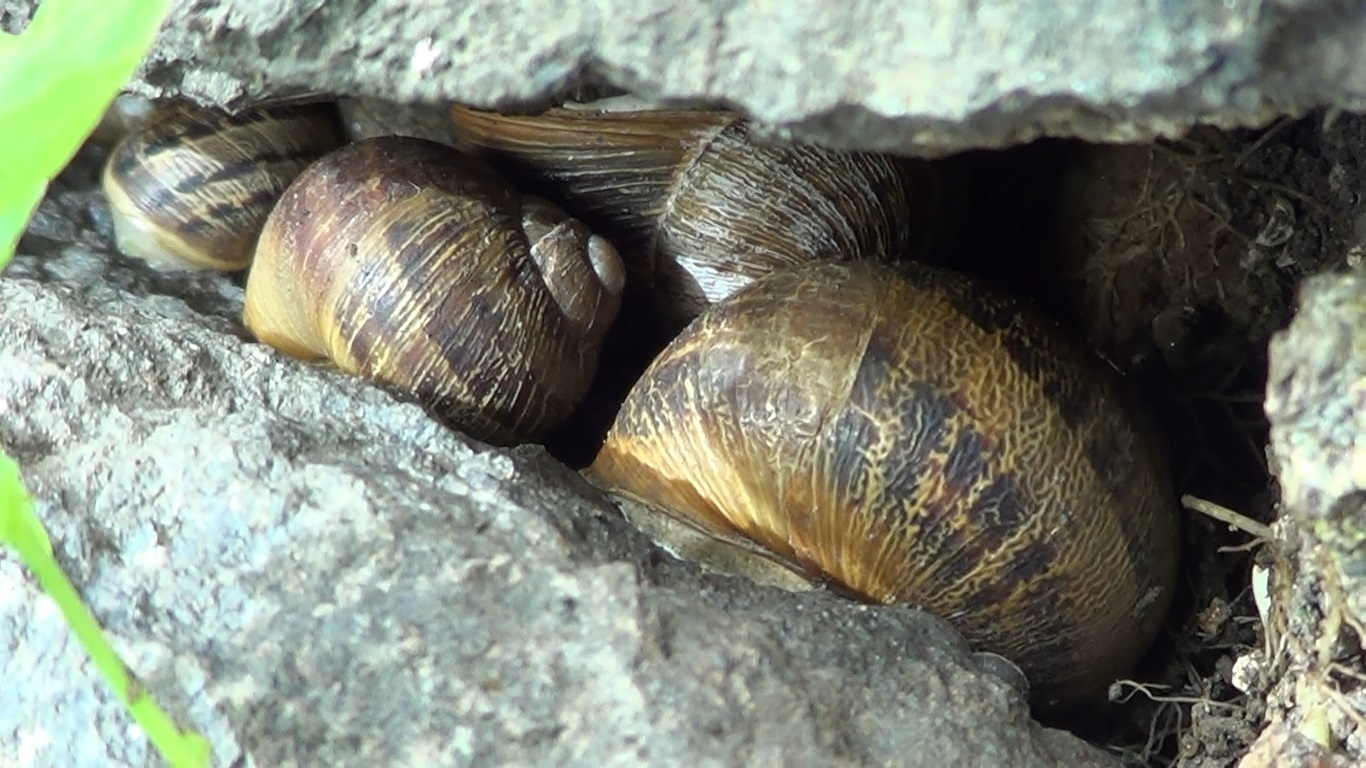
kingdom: Animalia
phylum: Mollusca
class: Gastropoda
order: Stylommatophora
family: Helicidae
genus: Cornu
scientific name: Cornu aspersum
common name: Brown garden snail
